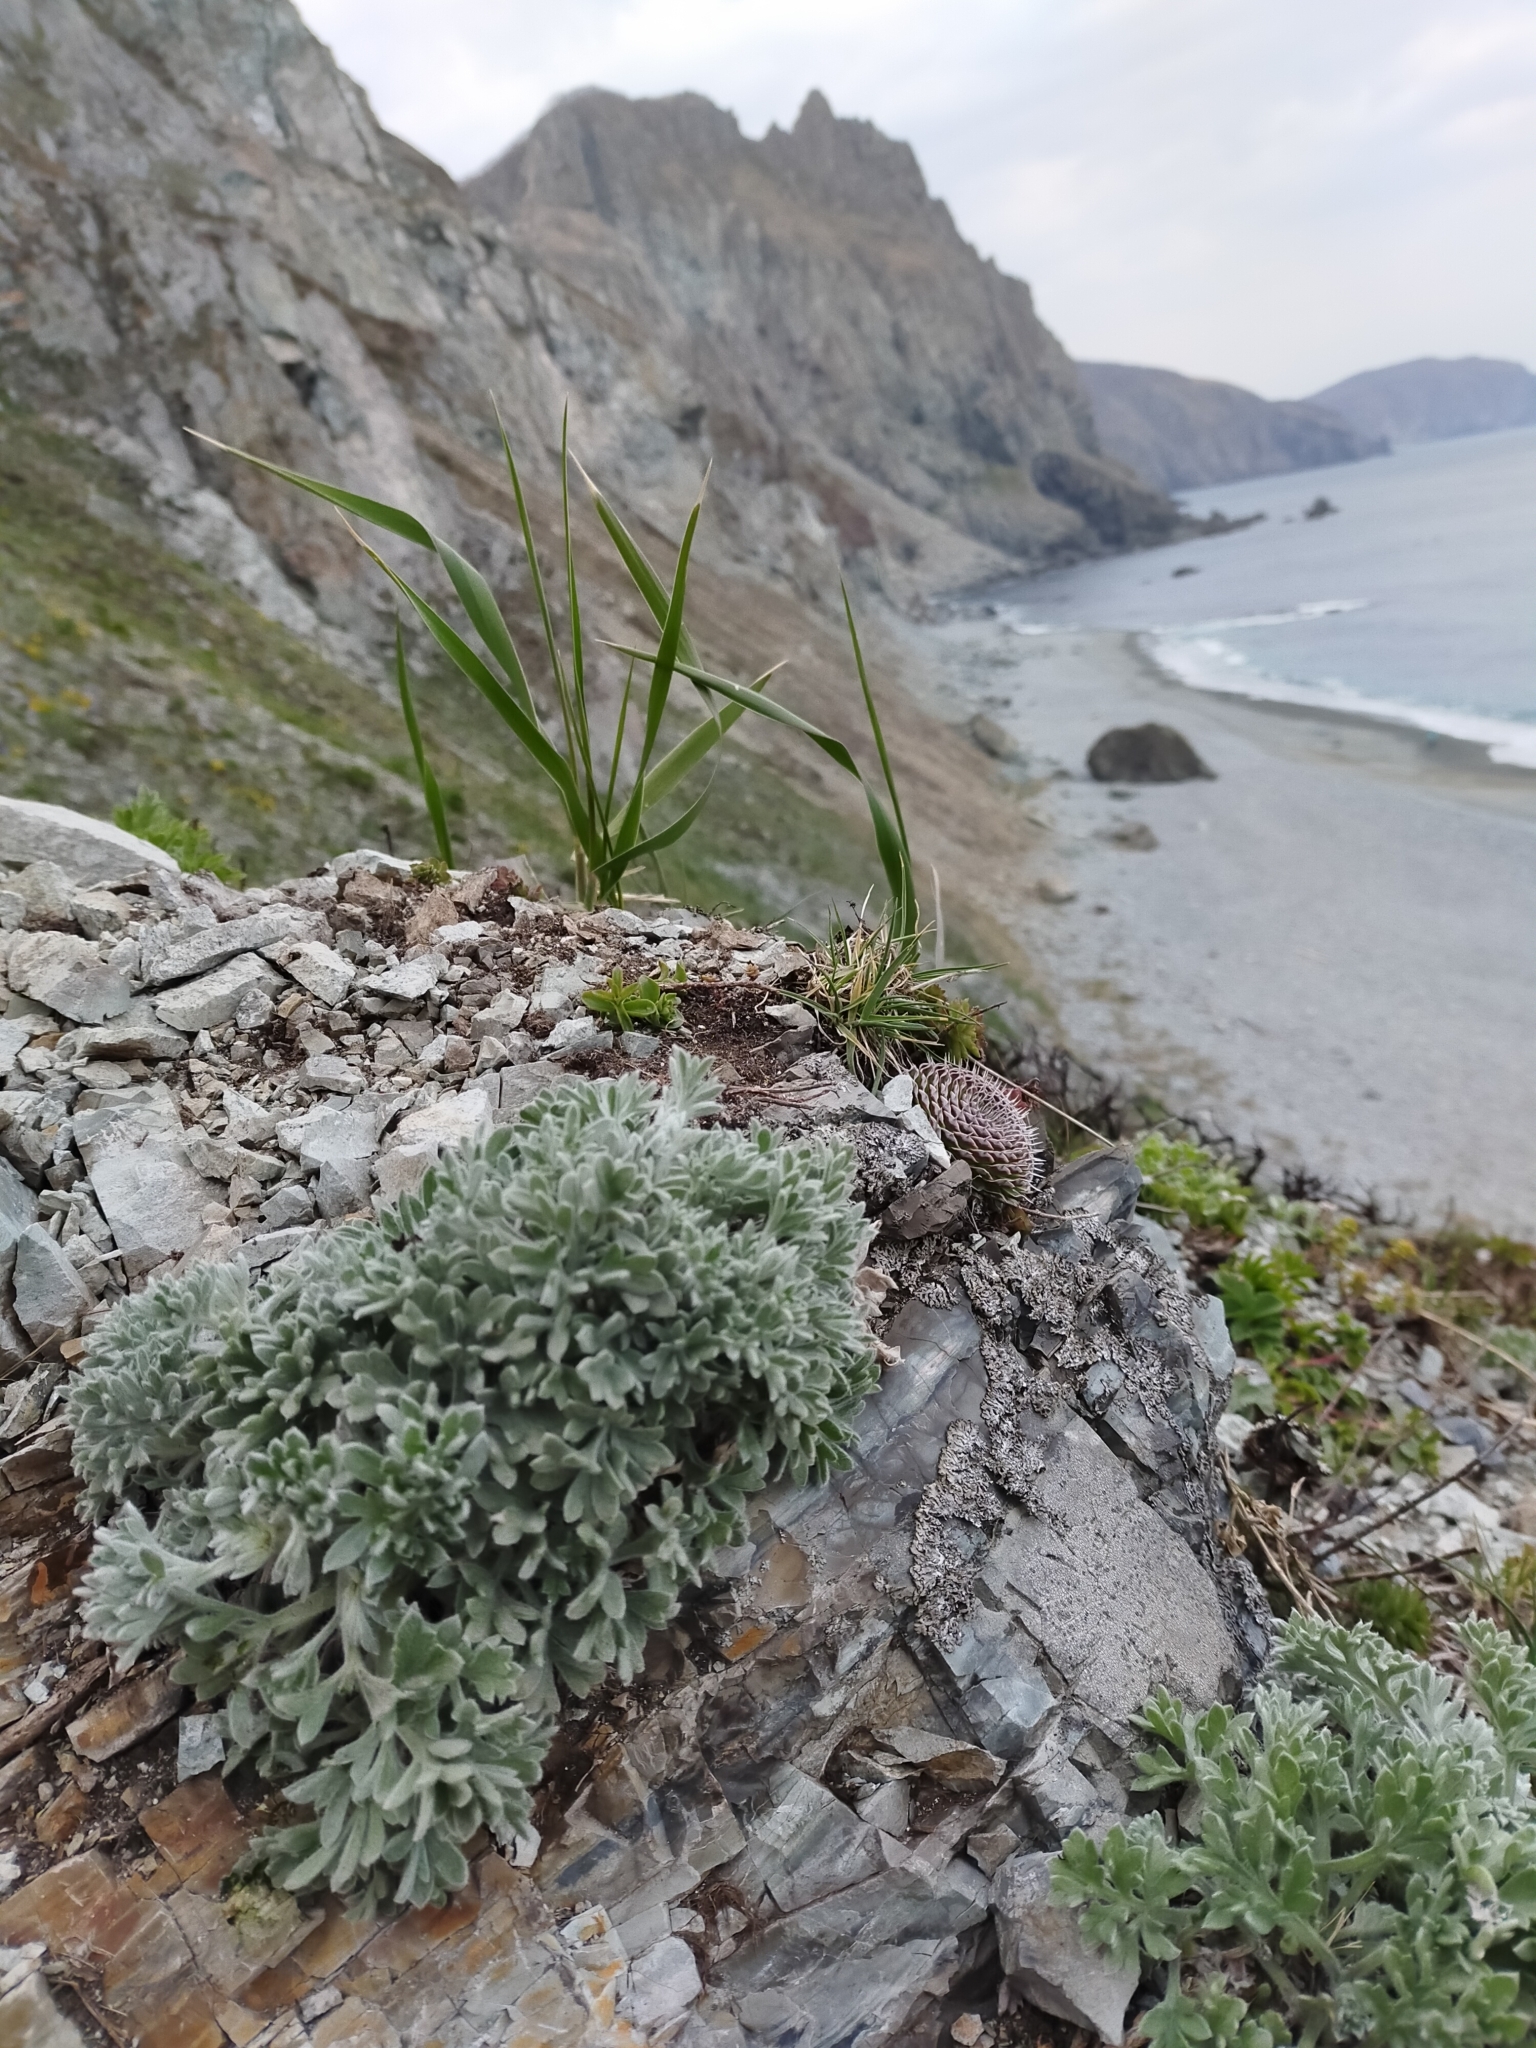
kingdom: Plantae
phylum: Tracheophyta
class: Magnoliopsida
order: Asterales
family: Asteraceae
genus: Artemisia
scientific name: Artemisia pannosa
